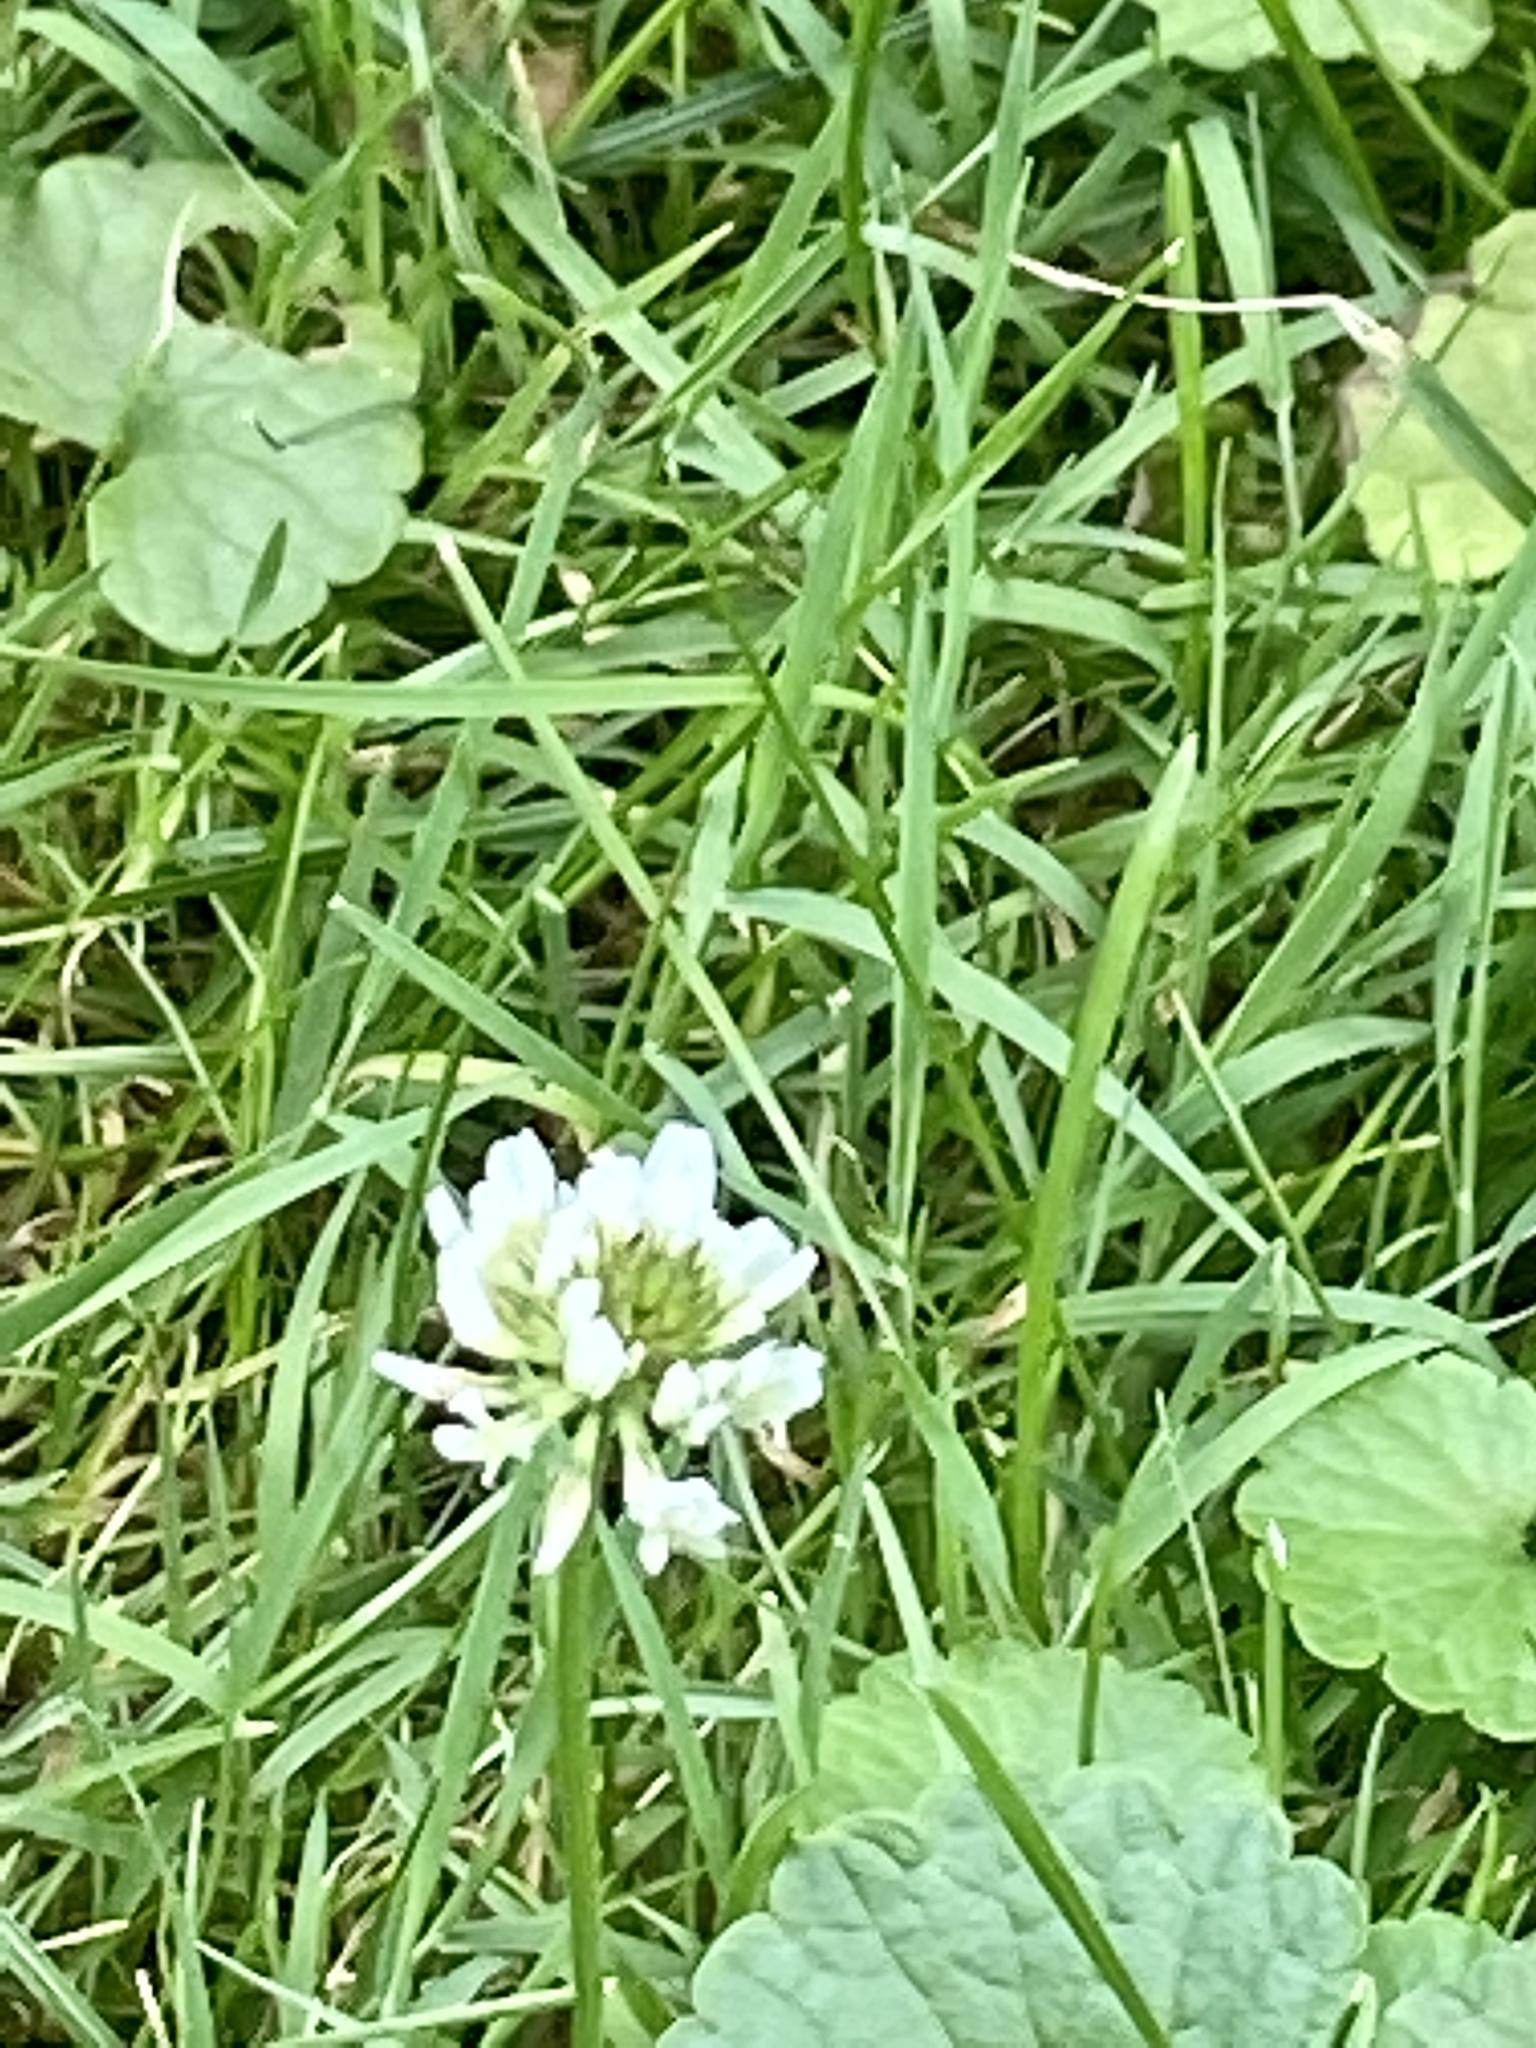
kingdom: Plantae
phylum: Tracheophyta
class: Magnoliopsida
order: Fabales
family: Fabaceae
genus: Trifolium
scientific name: Trifolium repens
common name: White clover
